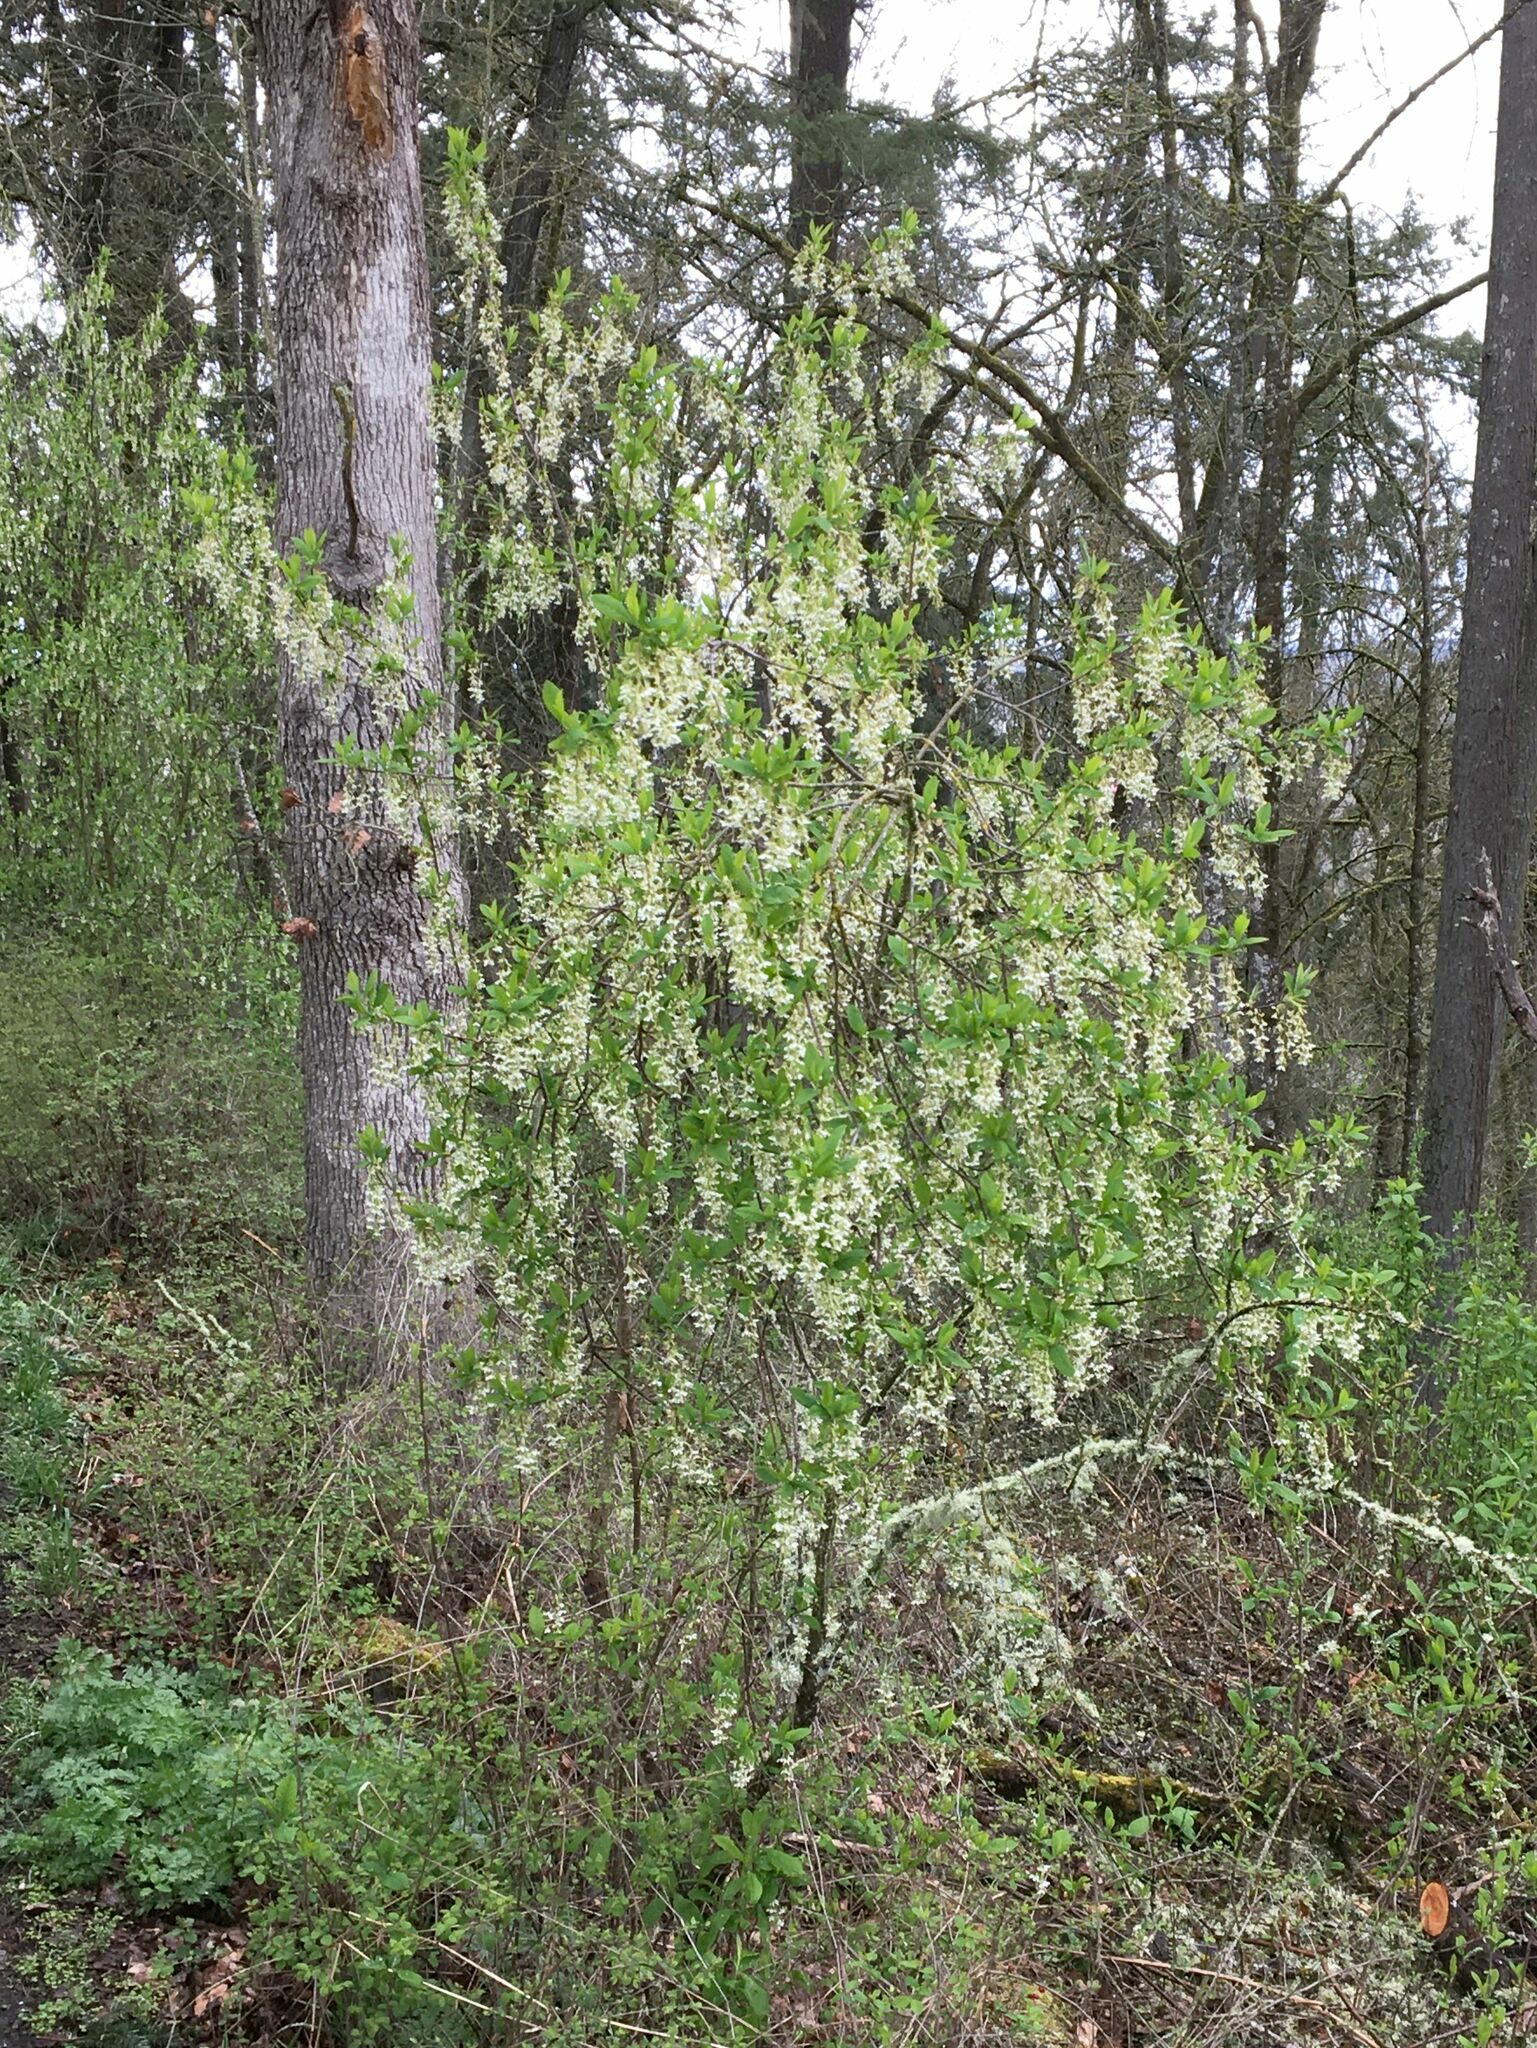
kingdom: Plantae
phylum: Tracheophyta
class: Magnoliopsida
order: Rosales
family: Rosaceae
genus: Oemleria
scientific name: Oemleria cerasiformis
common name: Osoberry
